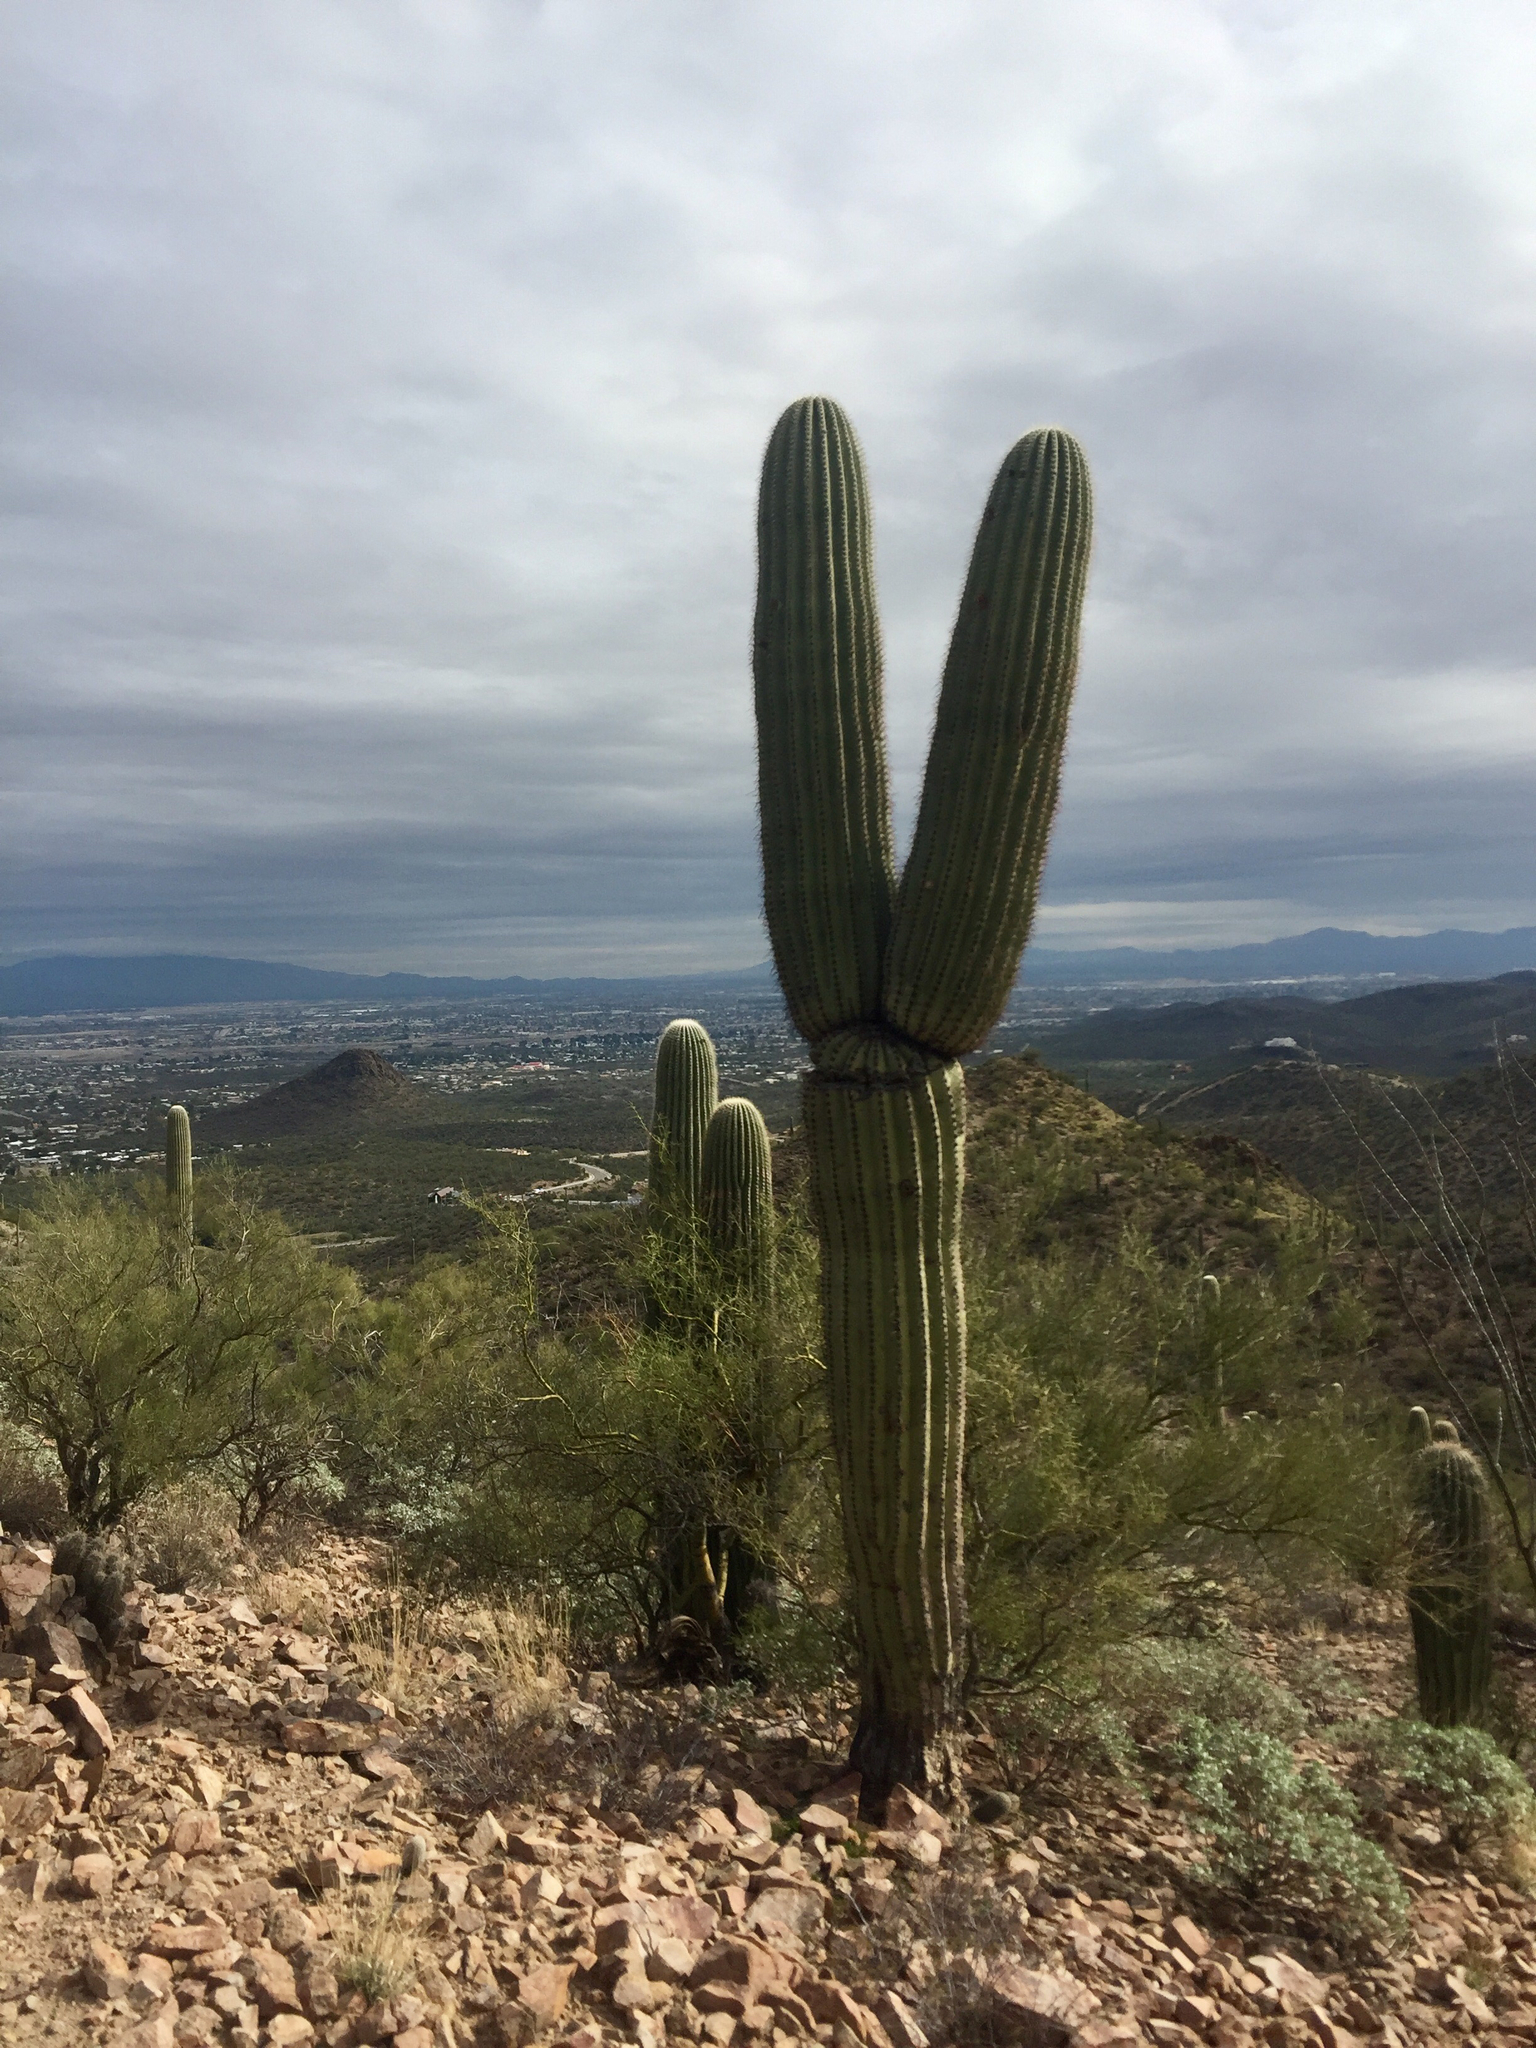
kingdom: Plantae
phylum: Tracheophyta
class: Magnoliopsida
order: Caryophyllales
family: Cactaceae
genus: Carnegiea
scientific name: Carnegiea gigantea
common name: Saguaro
